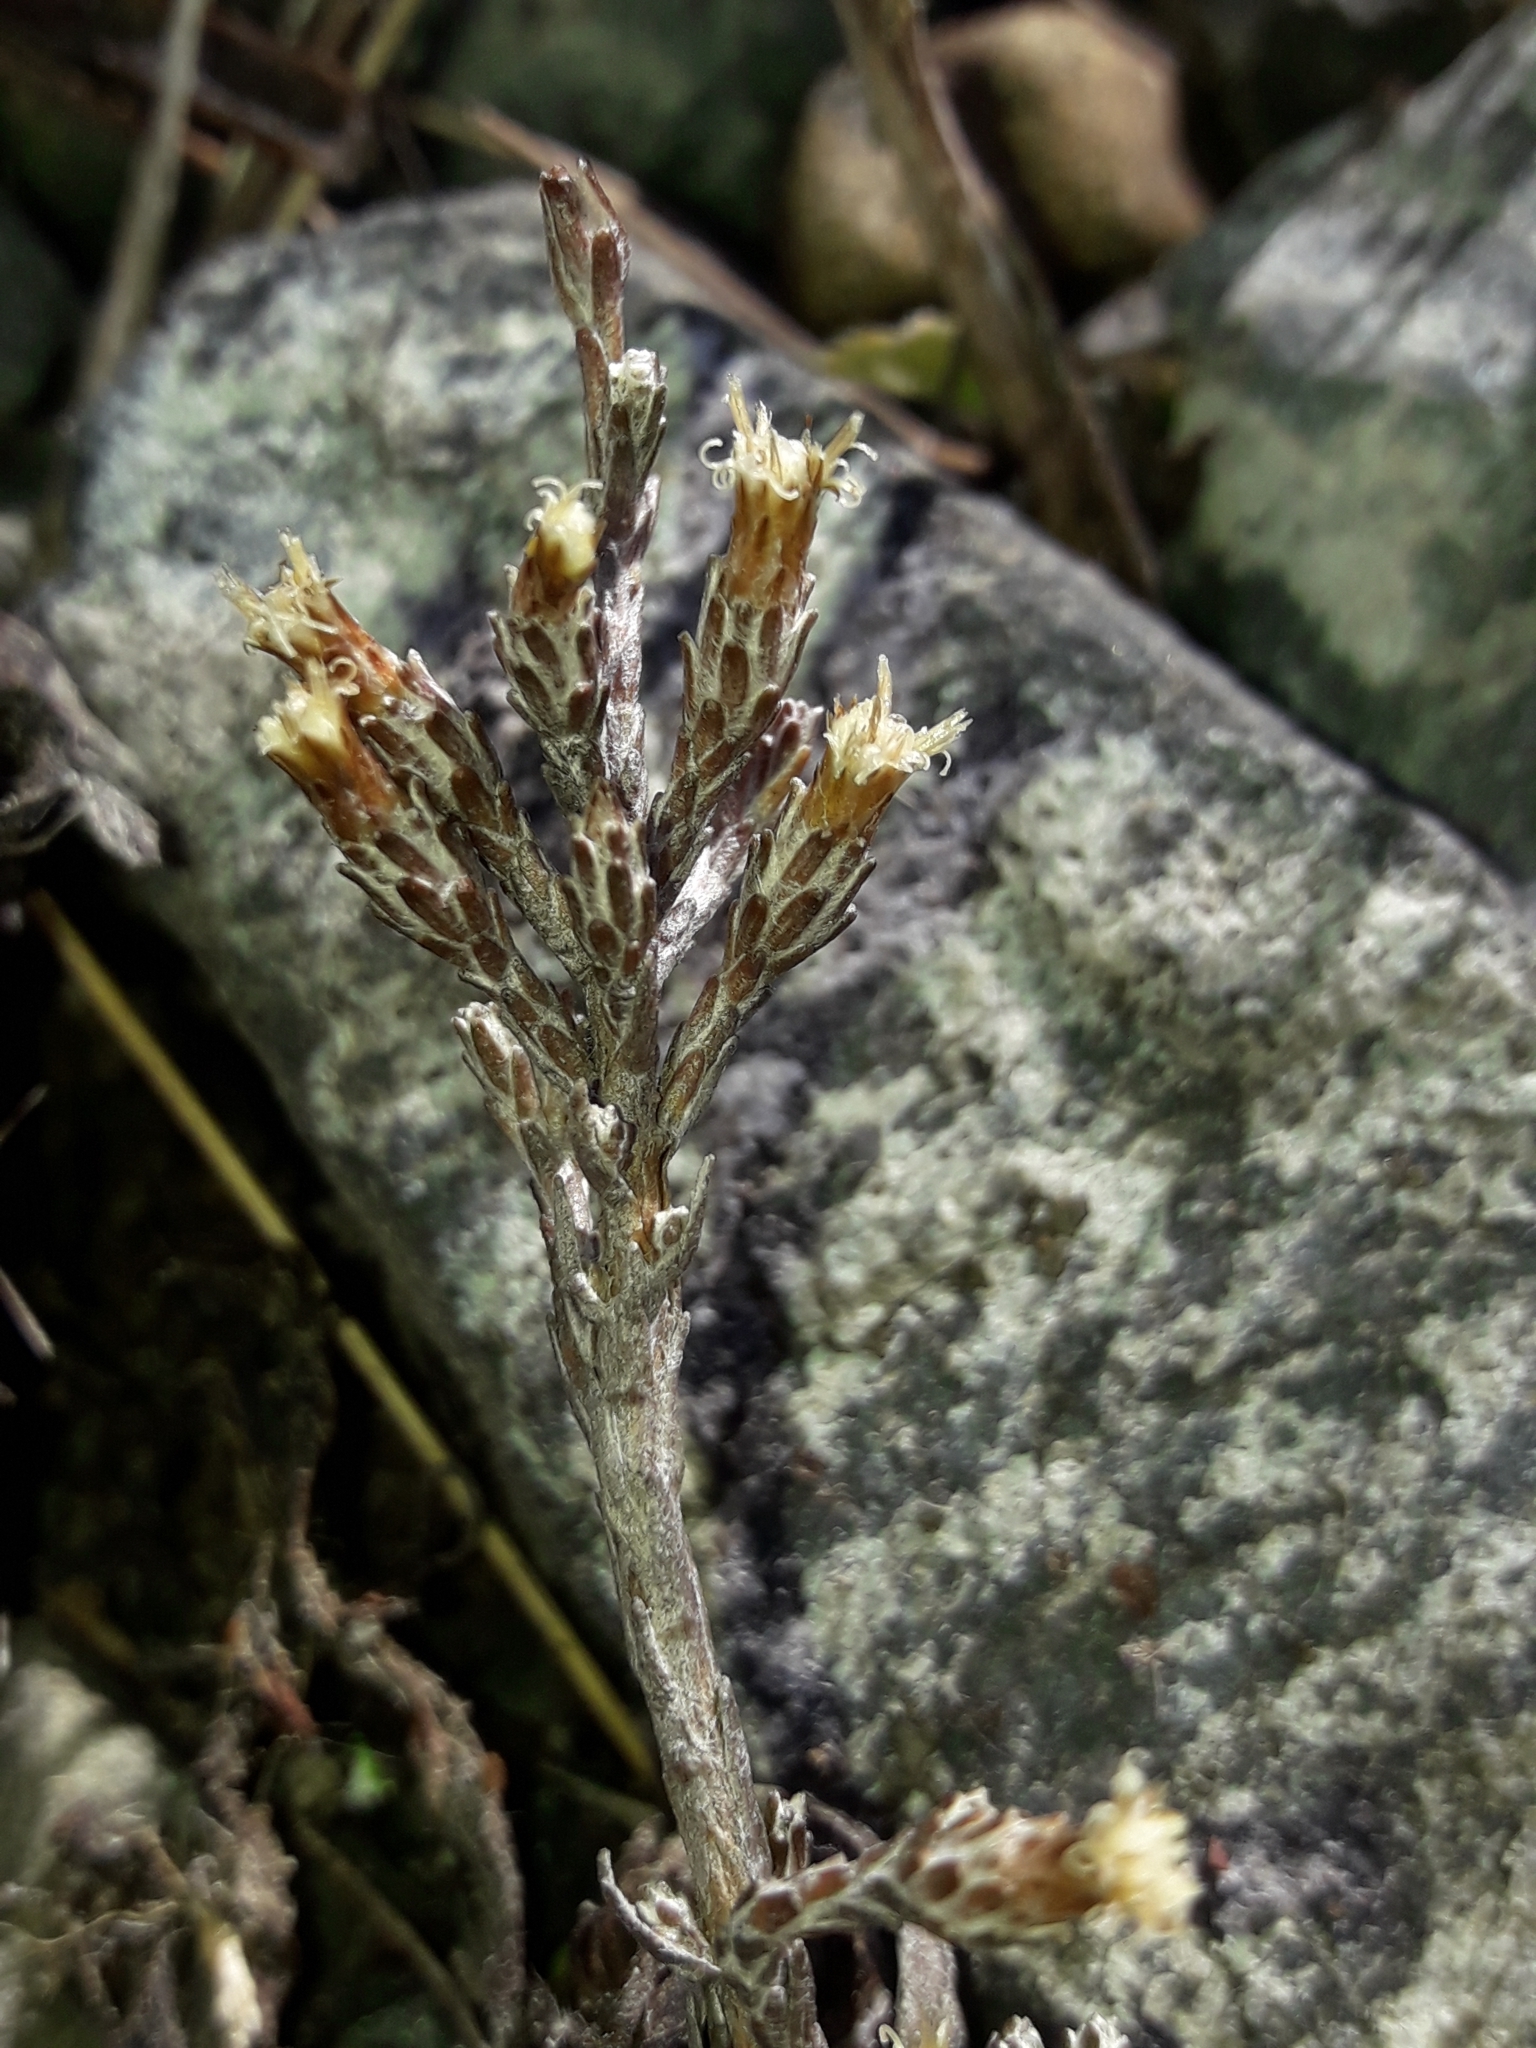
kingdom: Plantae
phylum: Tracheophyta
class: Magnoliopsida
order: Asterales
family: Asteraceae
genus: Ozothamnus
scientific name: Ozothamnus depressus
